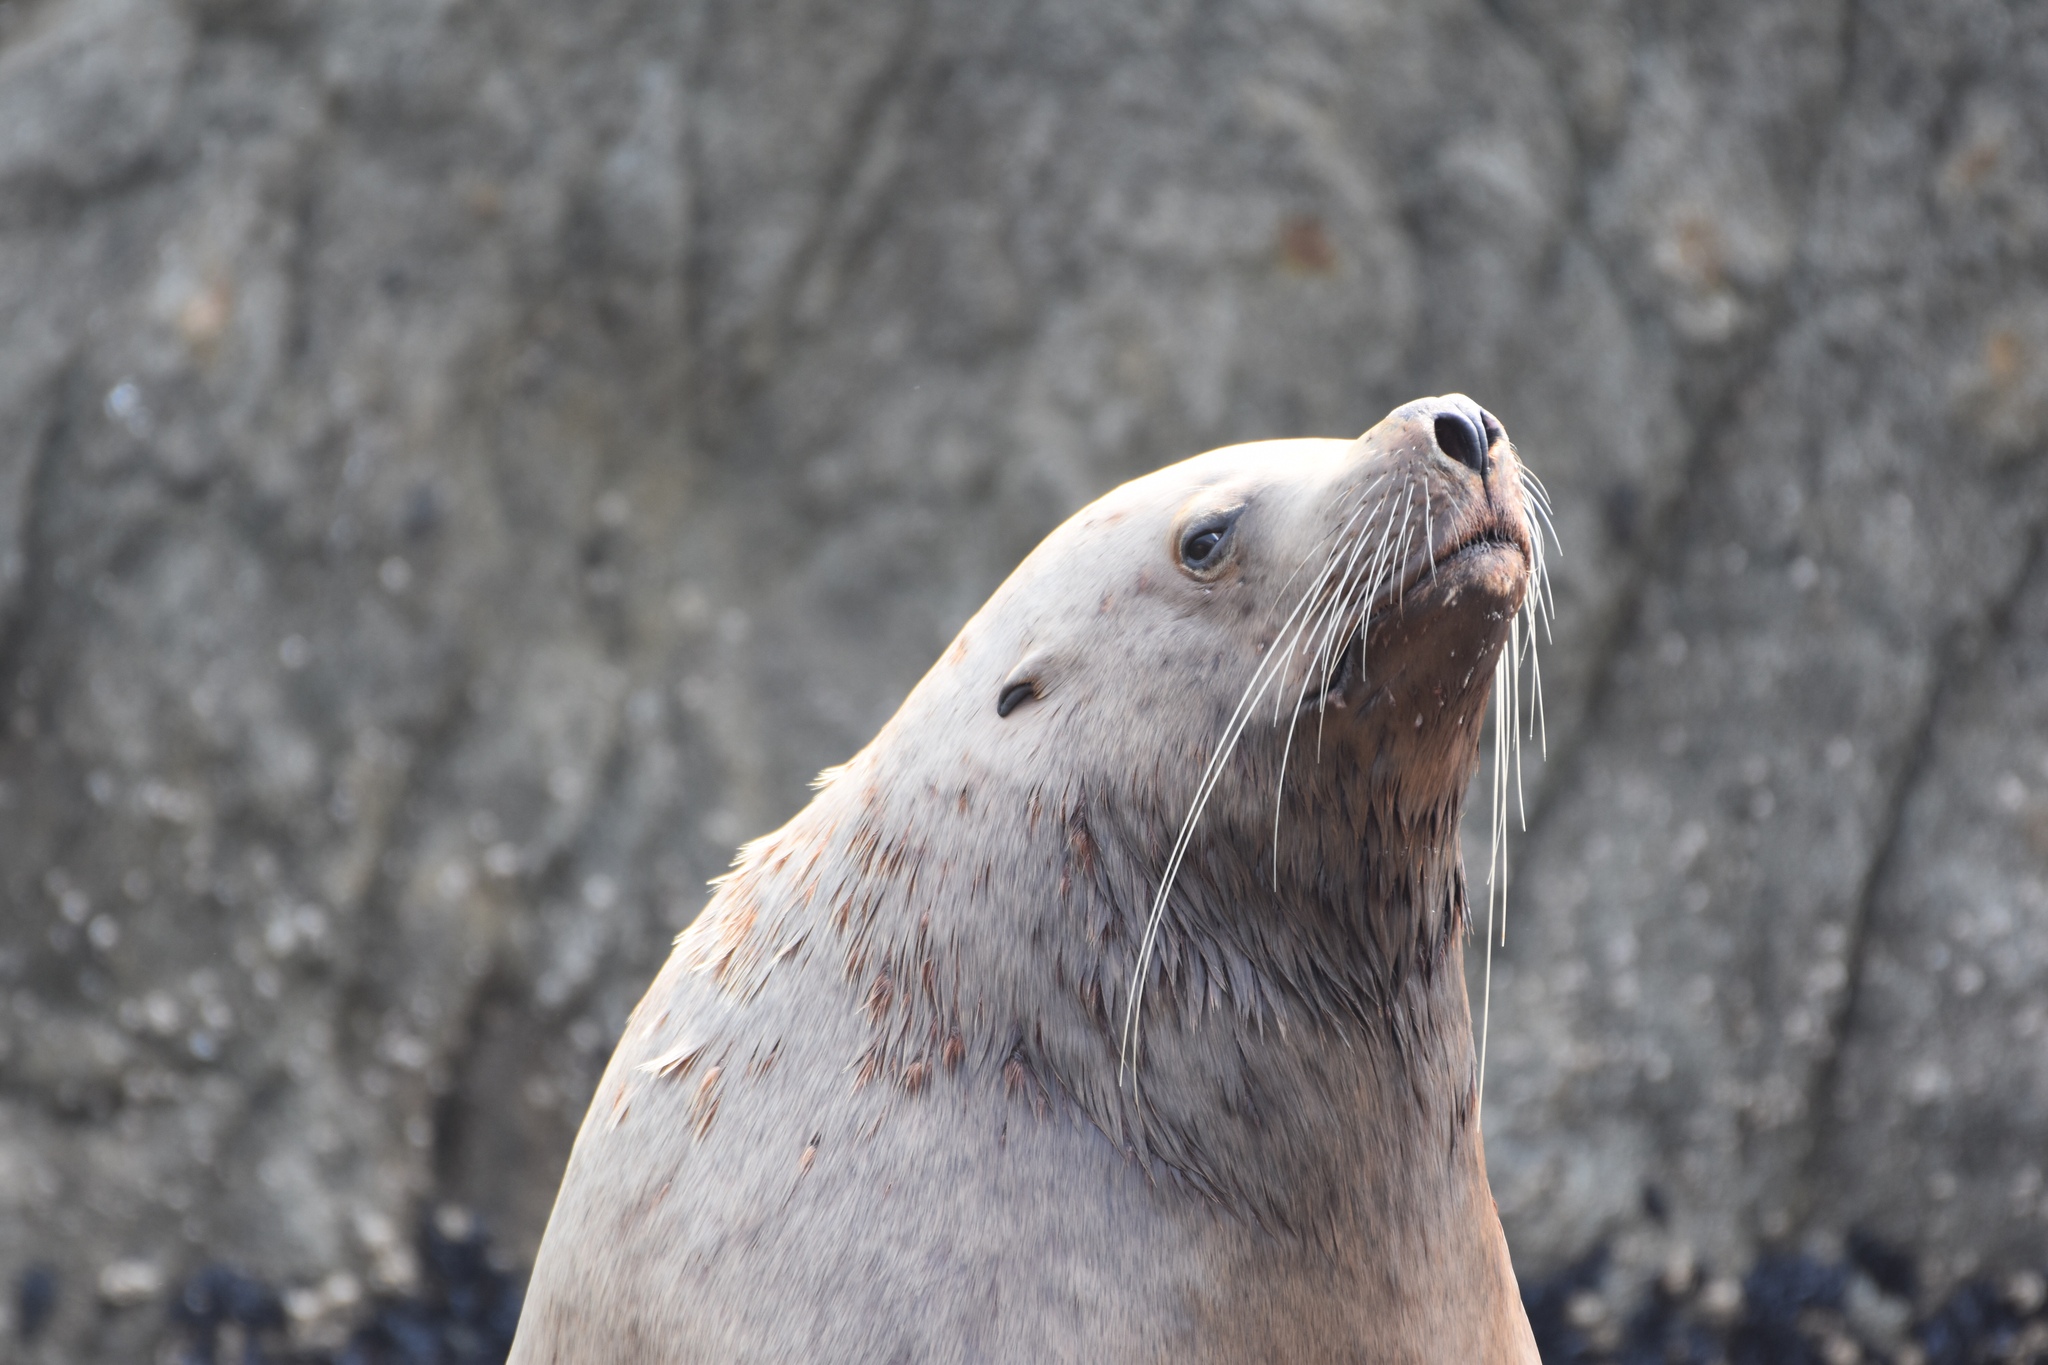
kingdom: Animalia
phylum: Chordata
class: Mammalia
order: Carnivora
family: Otariidae
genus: Eumetopias
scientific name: Eumetopias jubatus
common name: Steller sea lion
